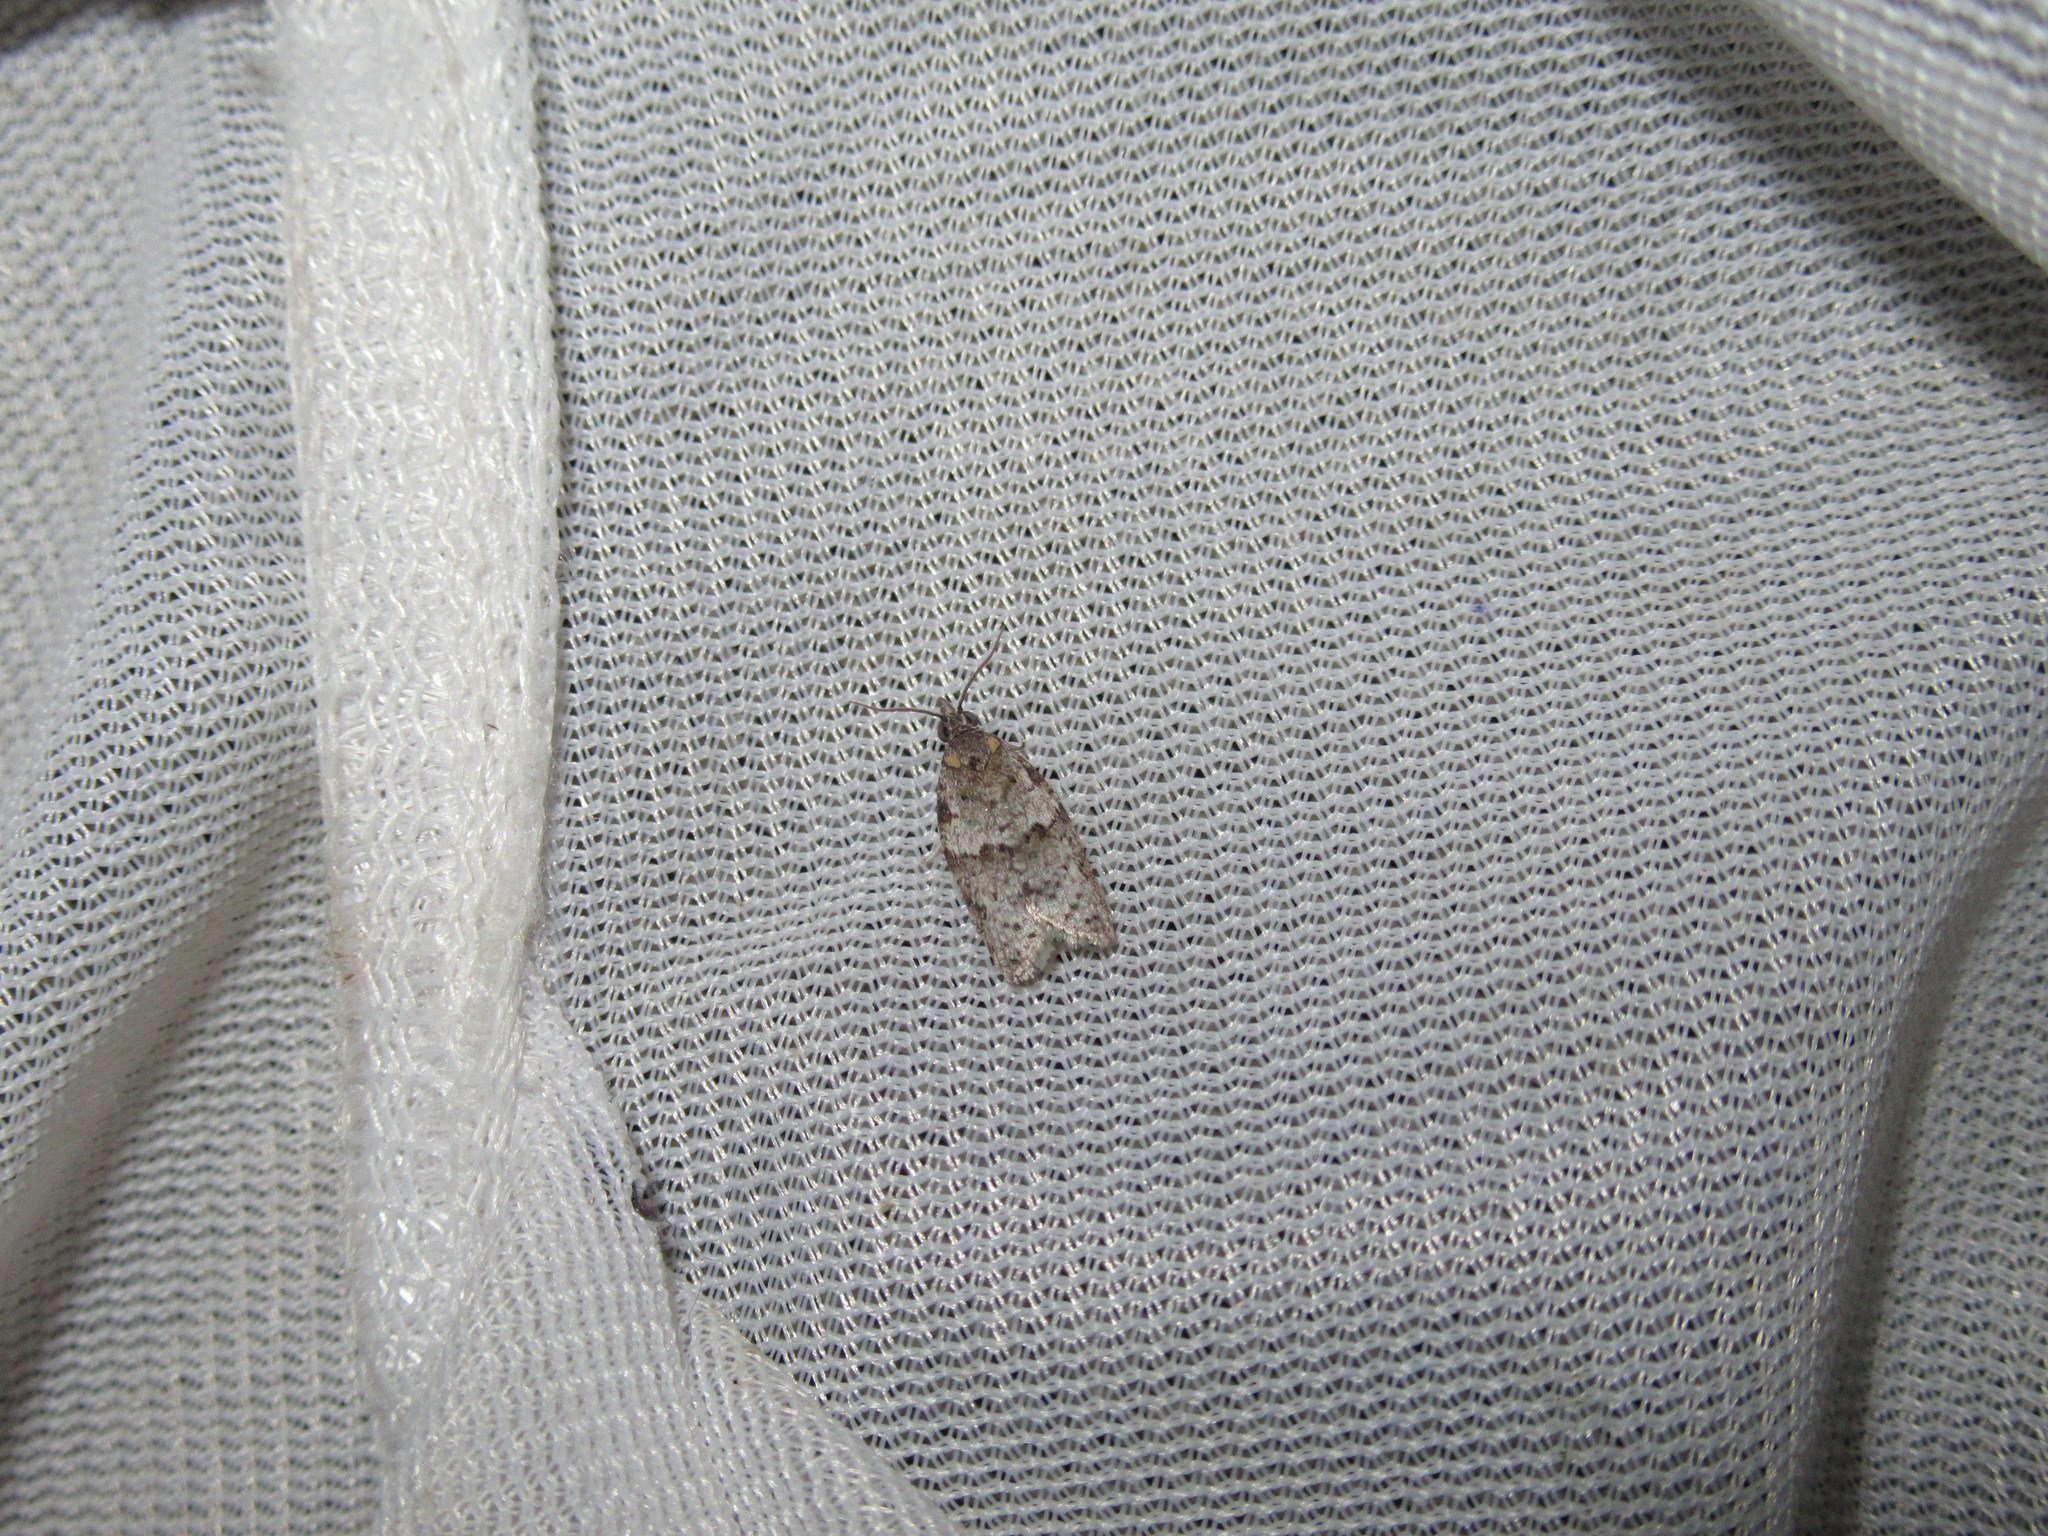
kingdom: Animalia
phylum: Arthropoda
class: Insecta
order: Lepidoptera
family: Tortricidae
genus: Isotenes
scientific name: Isotenes miserana
